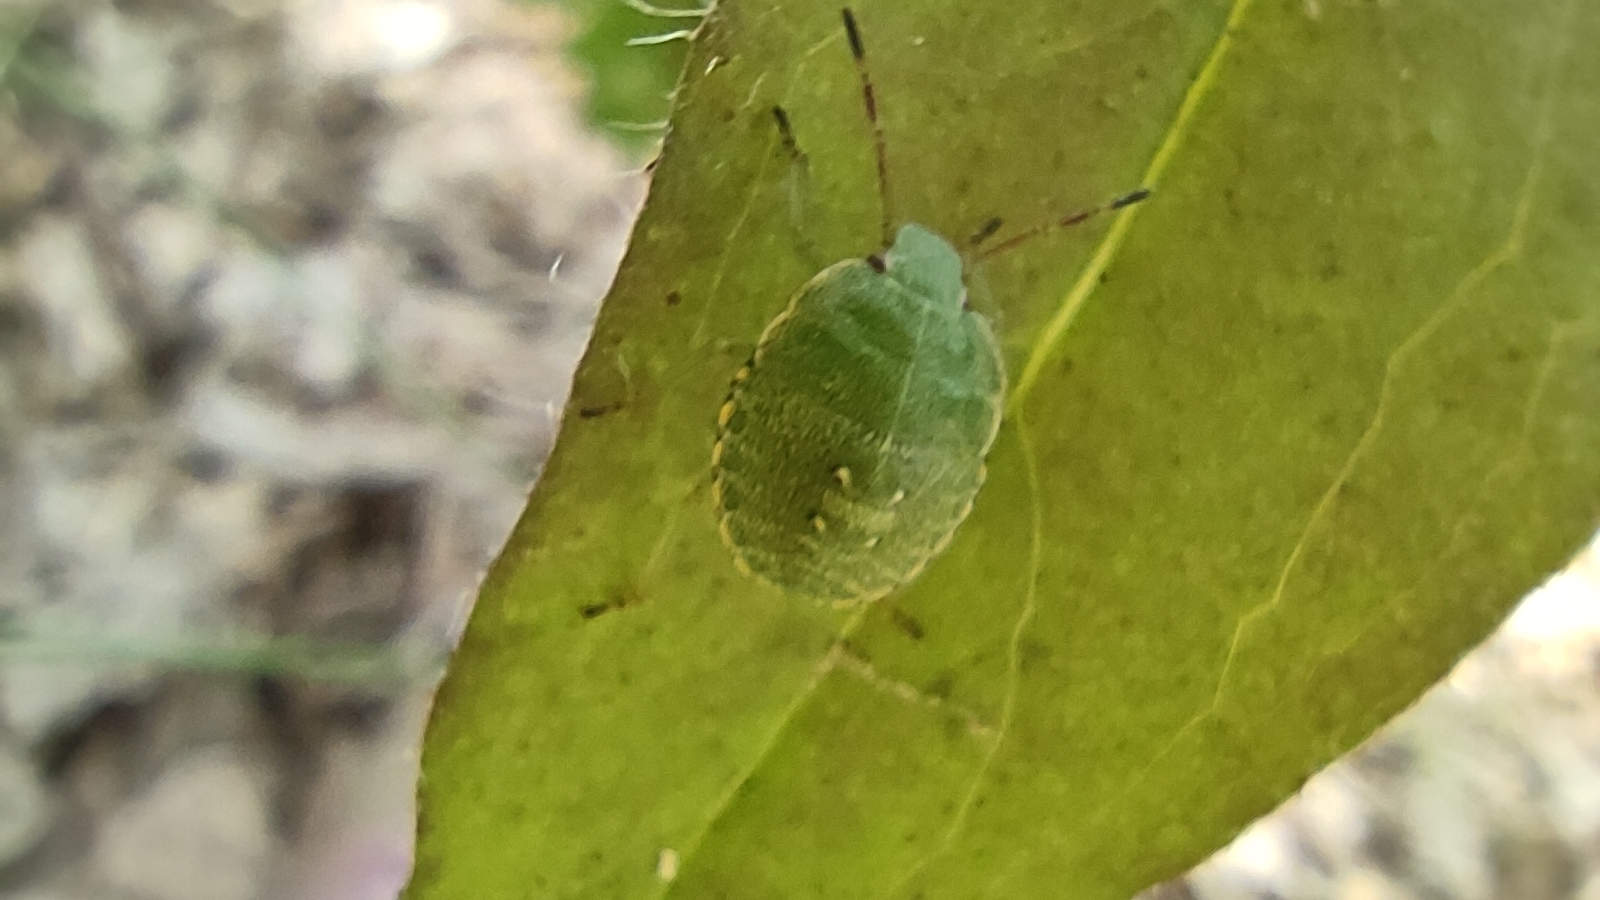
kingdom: Animalia
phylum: Arthropoda
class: Insecta
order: Hemiptera
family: Pentatomidae
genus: Palomena
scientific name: Palomena prasina
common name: Green shieldbug
